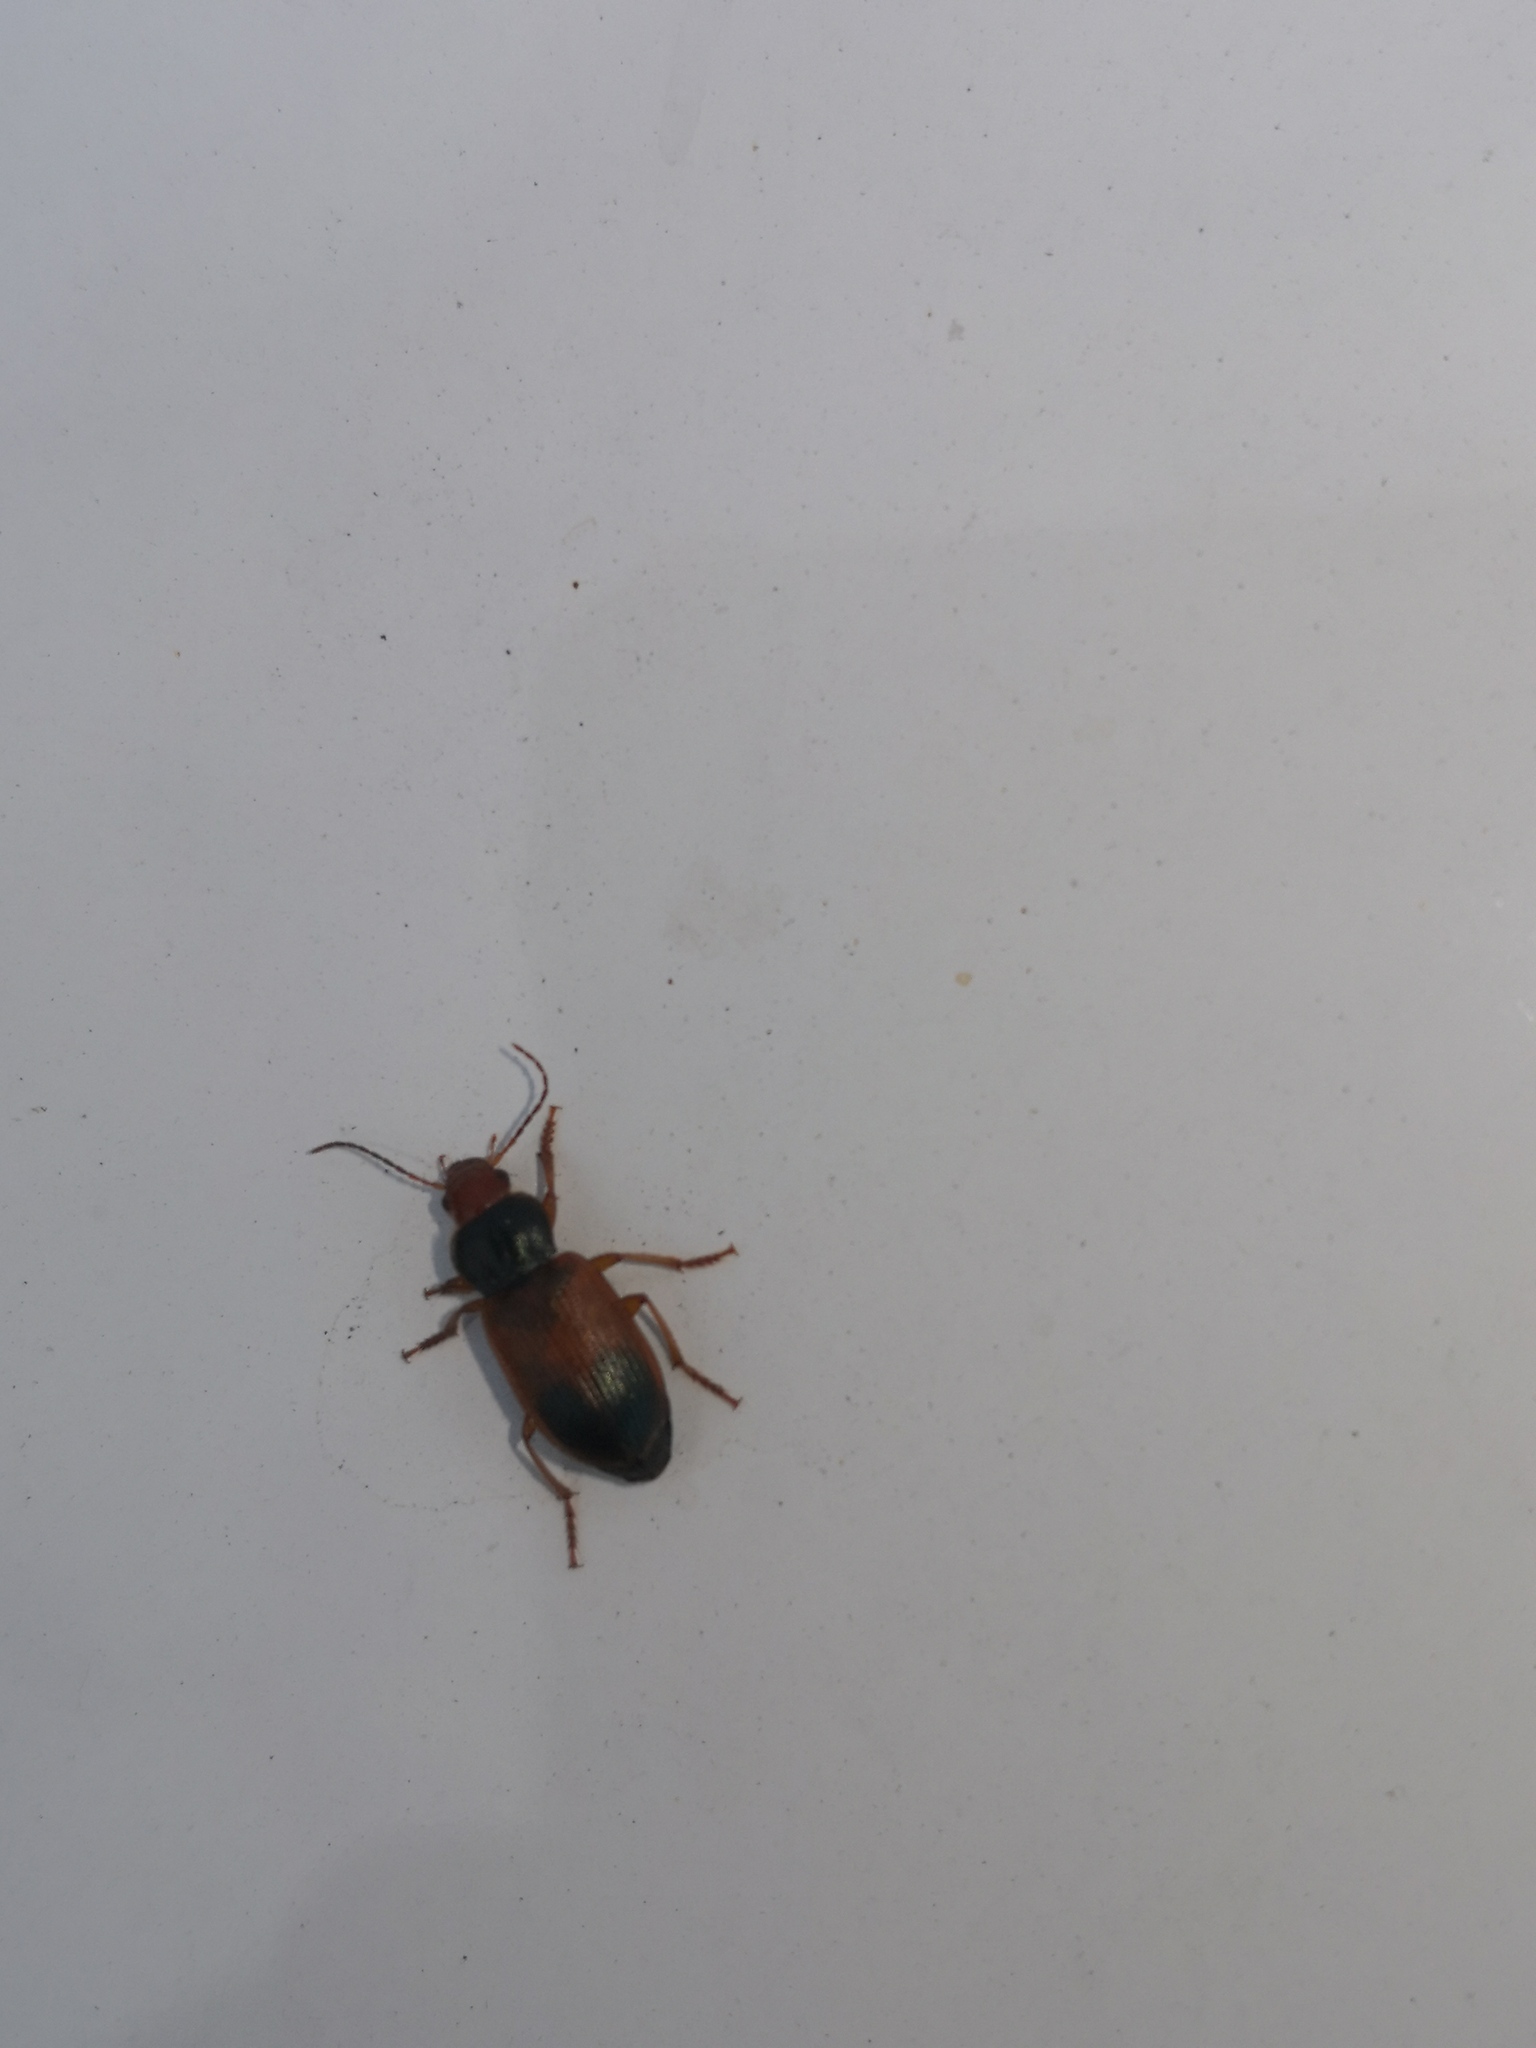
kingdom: Animalia
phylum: Arthropoda
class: Insecta
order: Coleoptera
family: Carabidae
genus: Diachromus
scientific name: Diachromus germanus
